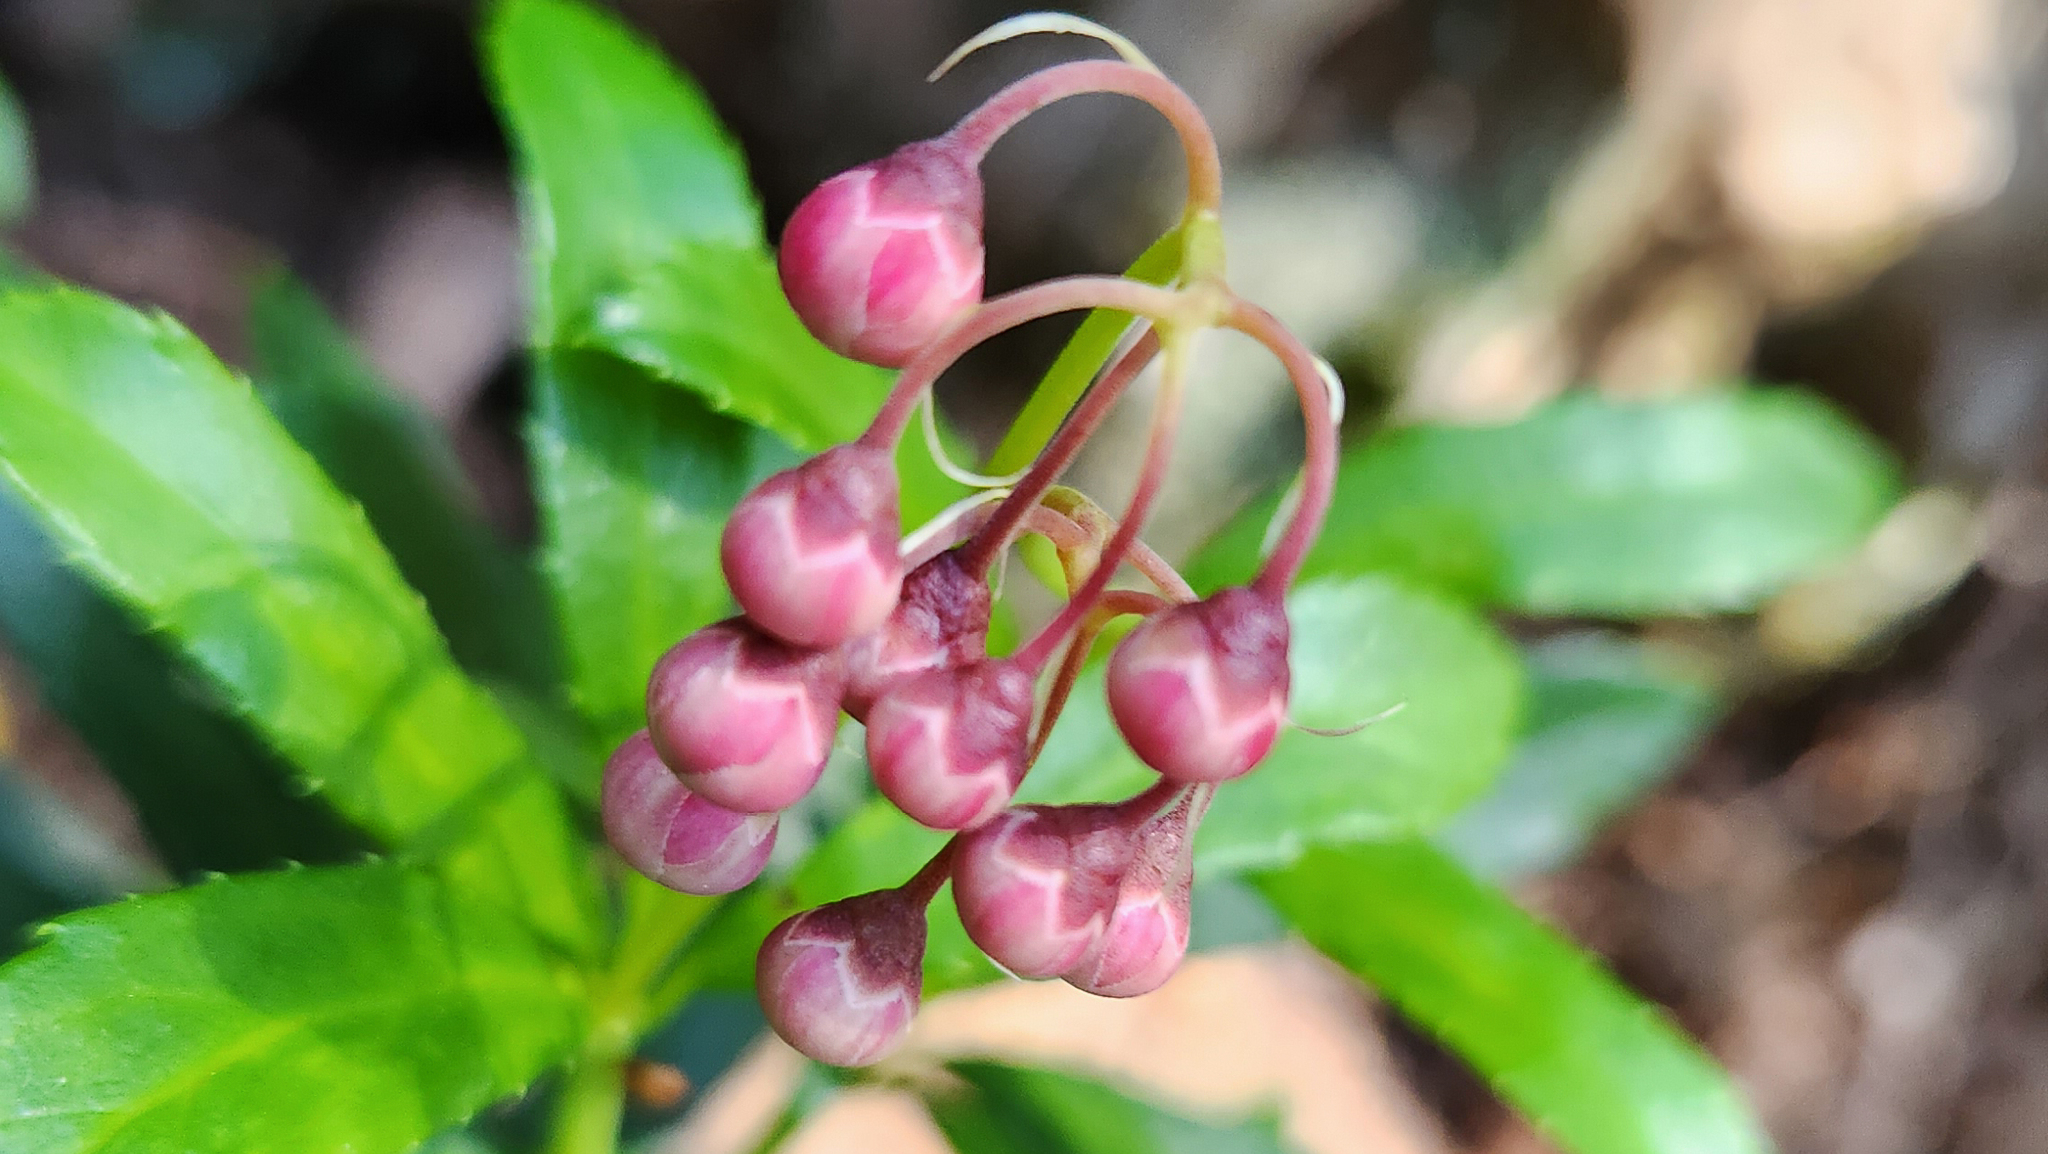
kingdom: Plantae
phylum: Tracheophyta
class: Magnoliopsida
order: Ericales
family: Ericaceae
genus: Chimaphila
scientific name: Chimaphila umbellata
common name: Pipsissewa
